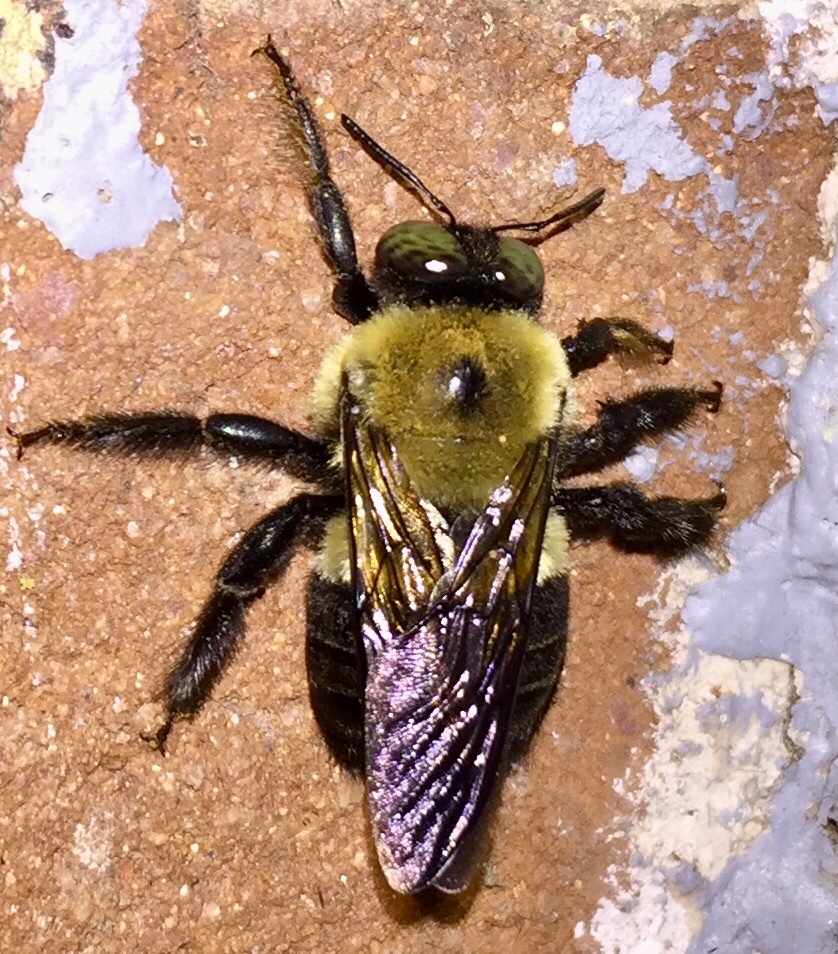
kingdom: Animalia
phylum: Arthropoda
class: Insecta
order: Hymenoptera
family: Apidae
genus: Xylocopa
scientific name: Xylocopa virginica
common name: Carpenter bee
